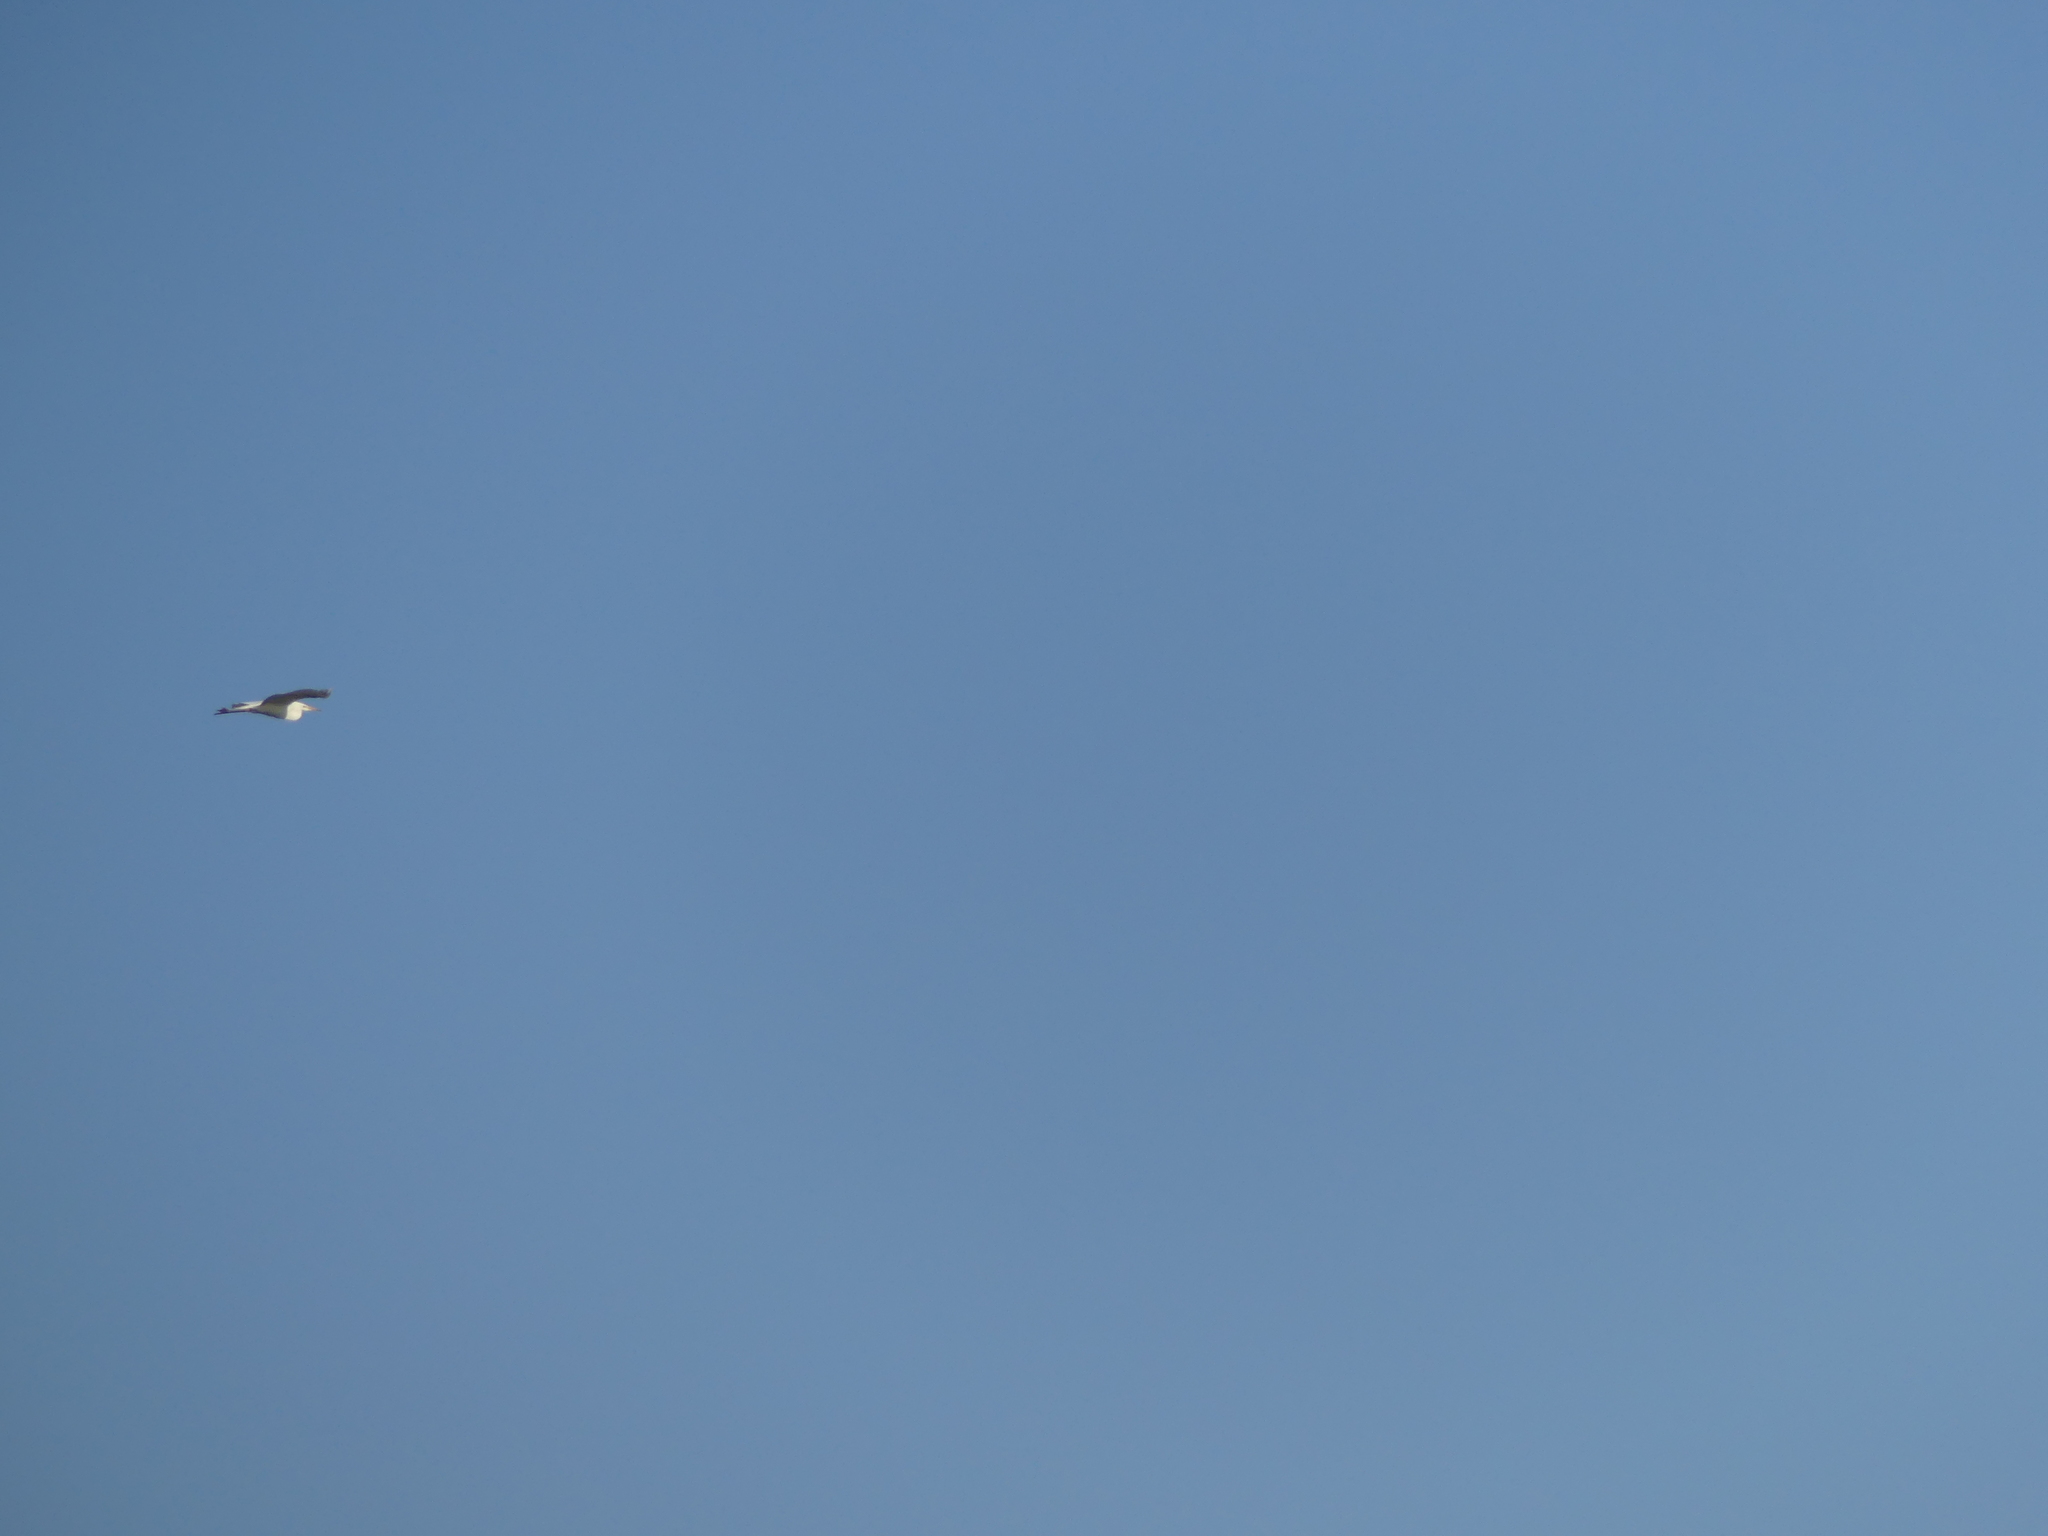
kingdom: Animalia
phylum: Chordata
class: Aves
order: Pelecaniformes
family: Ardeidae
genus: Ardea
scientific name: Ardea alba
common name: Great egret
